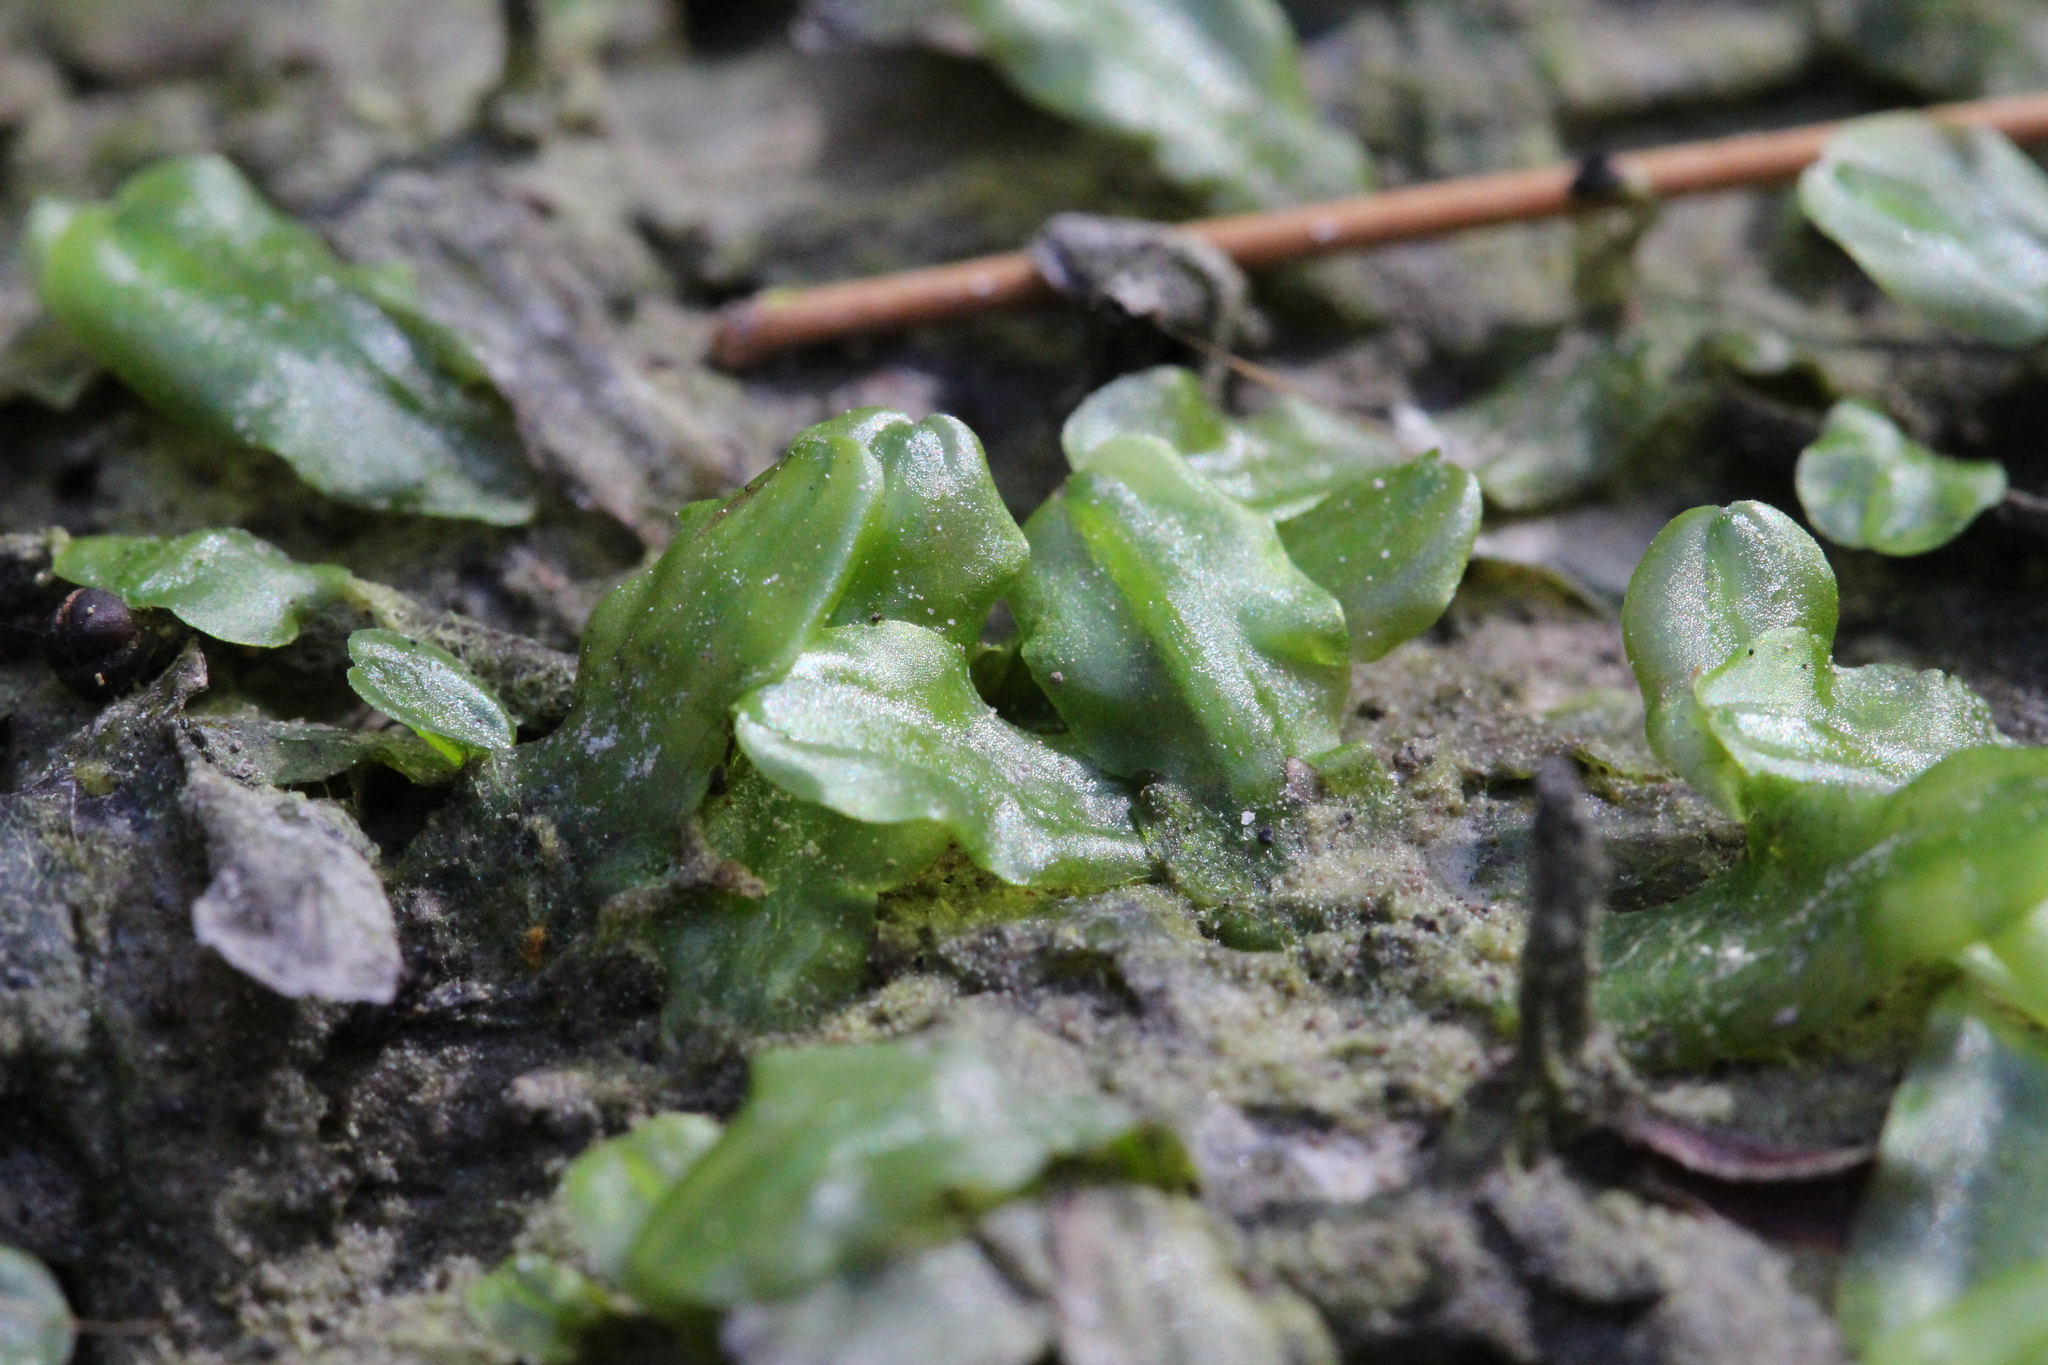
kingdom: Plantae
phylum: Marchantiophyta
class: Jungermanniopsida
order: Pallaviciniales
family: Pallaviciniaceae
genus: Pallavicinia
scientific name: Pallavicinia lyellii
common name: Veilwort
